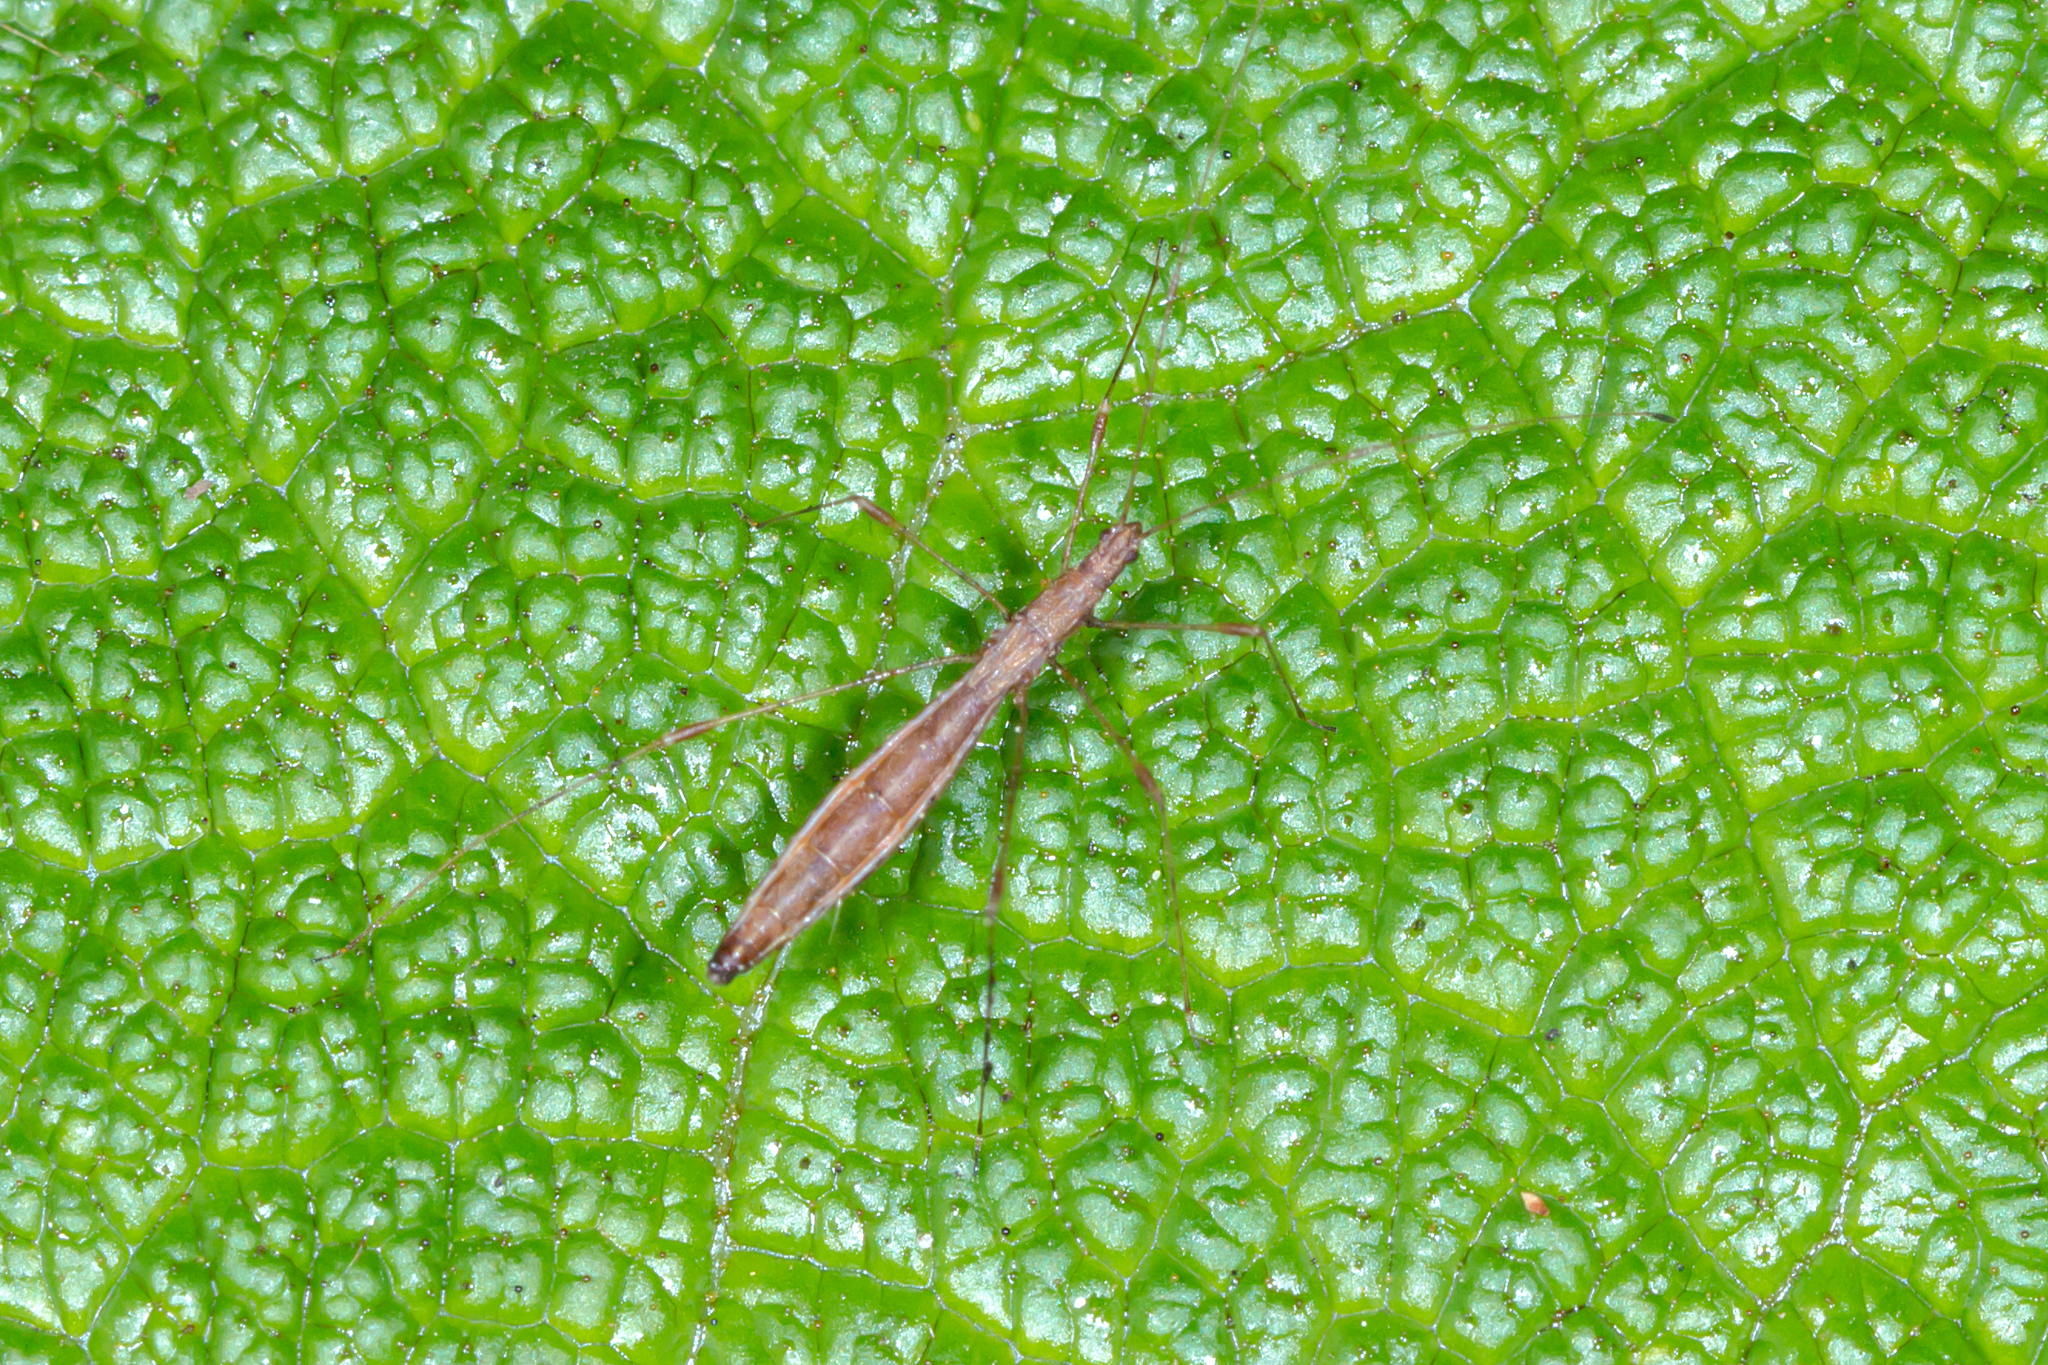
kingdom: Animalia
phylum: Arthropoda
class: Insecta
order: Hemiptera
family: Berytidae
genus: Chinoneides
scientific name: Chinoneides tasmaniensis
